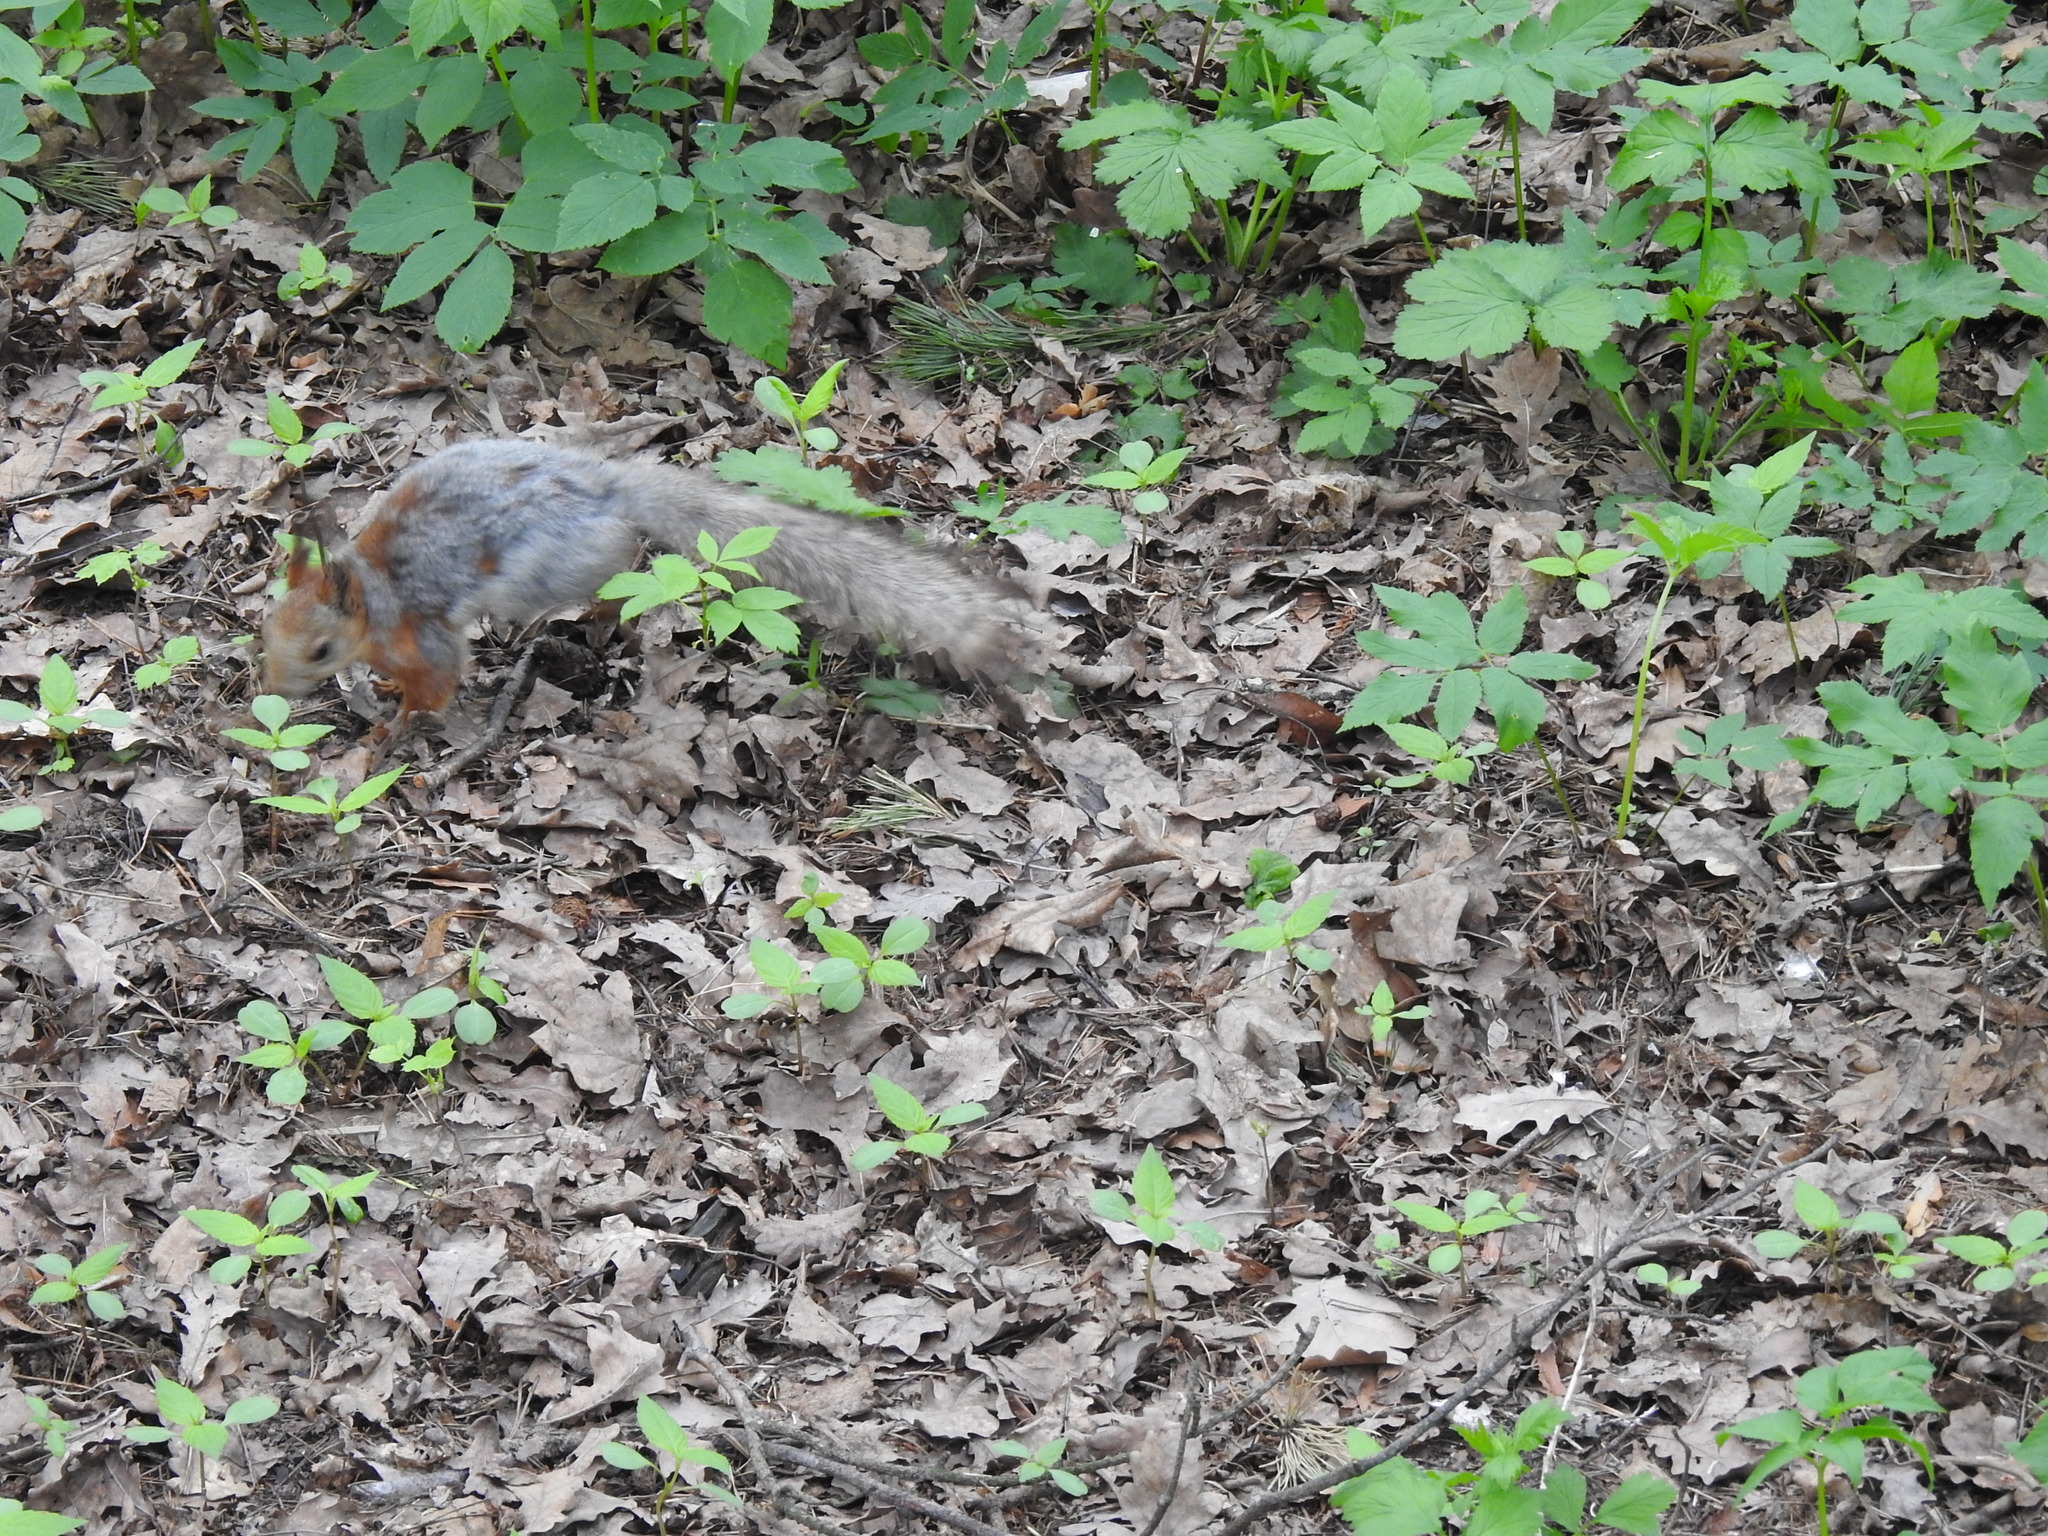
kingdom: Animalia
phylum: Chordata
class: Mammalia
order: Rodentia
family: Sciuridae
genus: Sciurus
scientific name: Sciurus vulgaris
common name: Eurasian red squirrel
